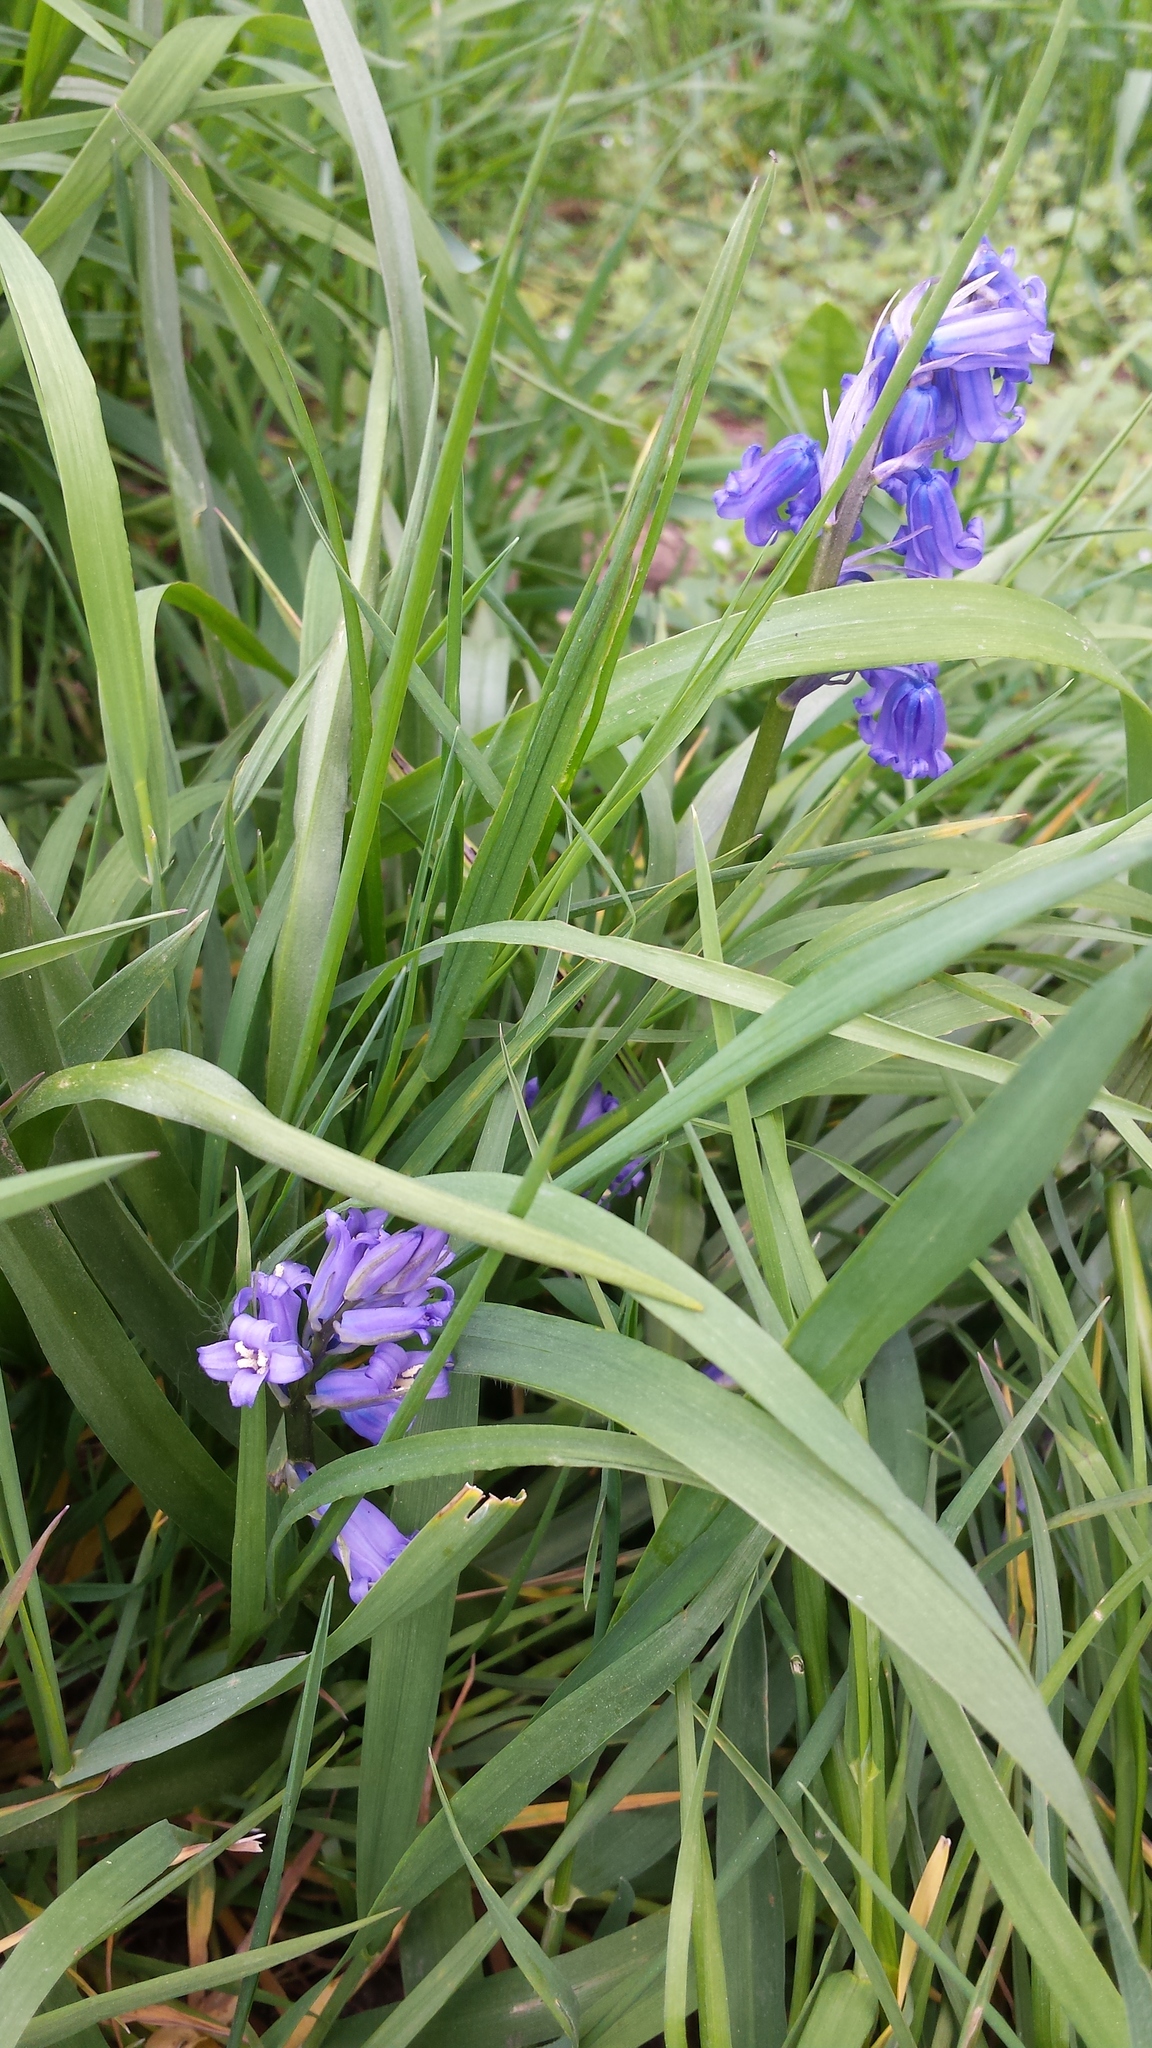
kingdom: Plantae
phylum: Tracheophyta
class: Liliopsida
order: Asparagales
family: Asparagaceae
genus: Hyacinthoides
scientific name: Hyacinthoides non-scripta
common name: Bluebell
